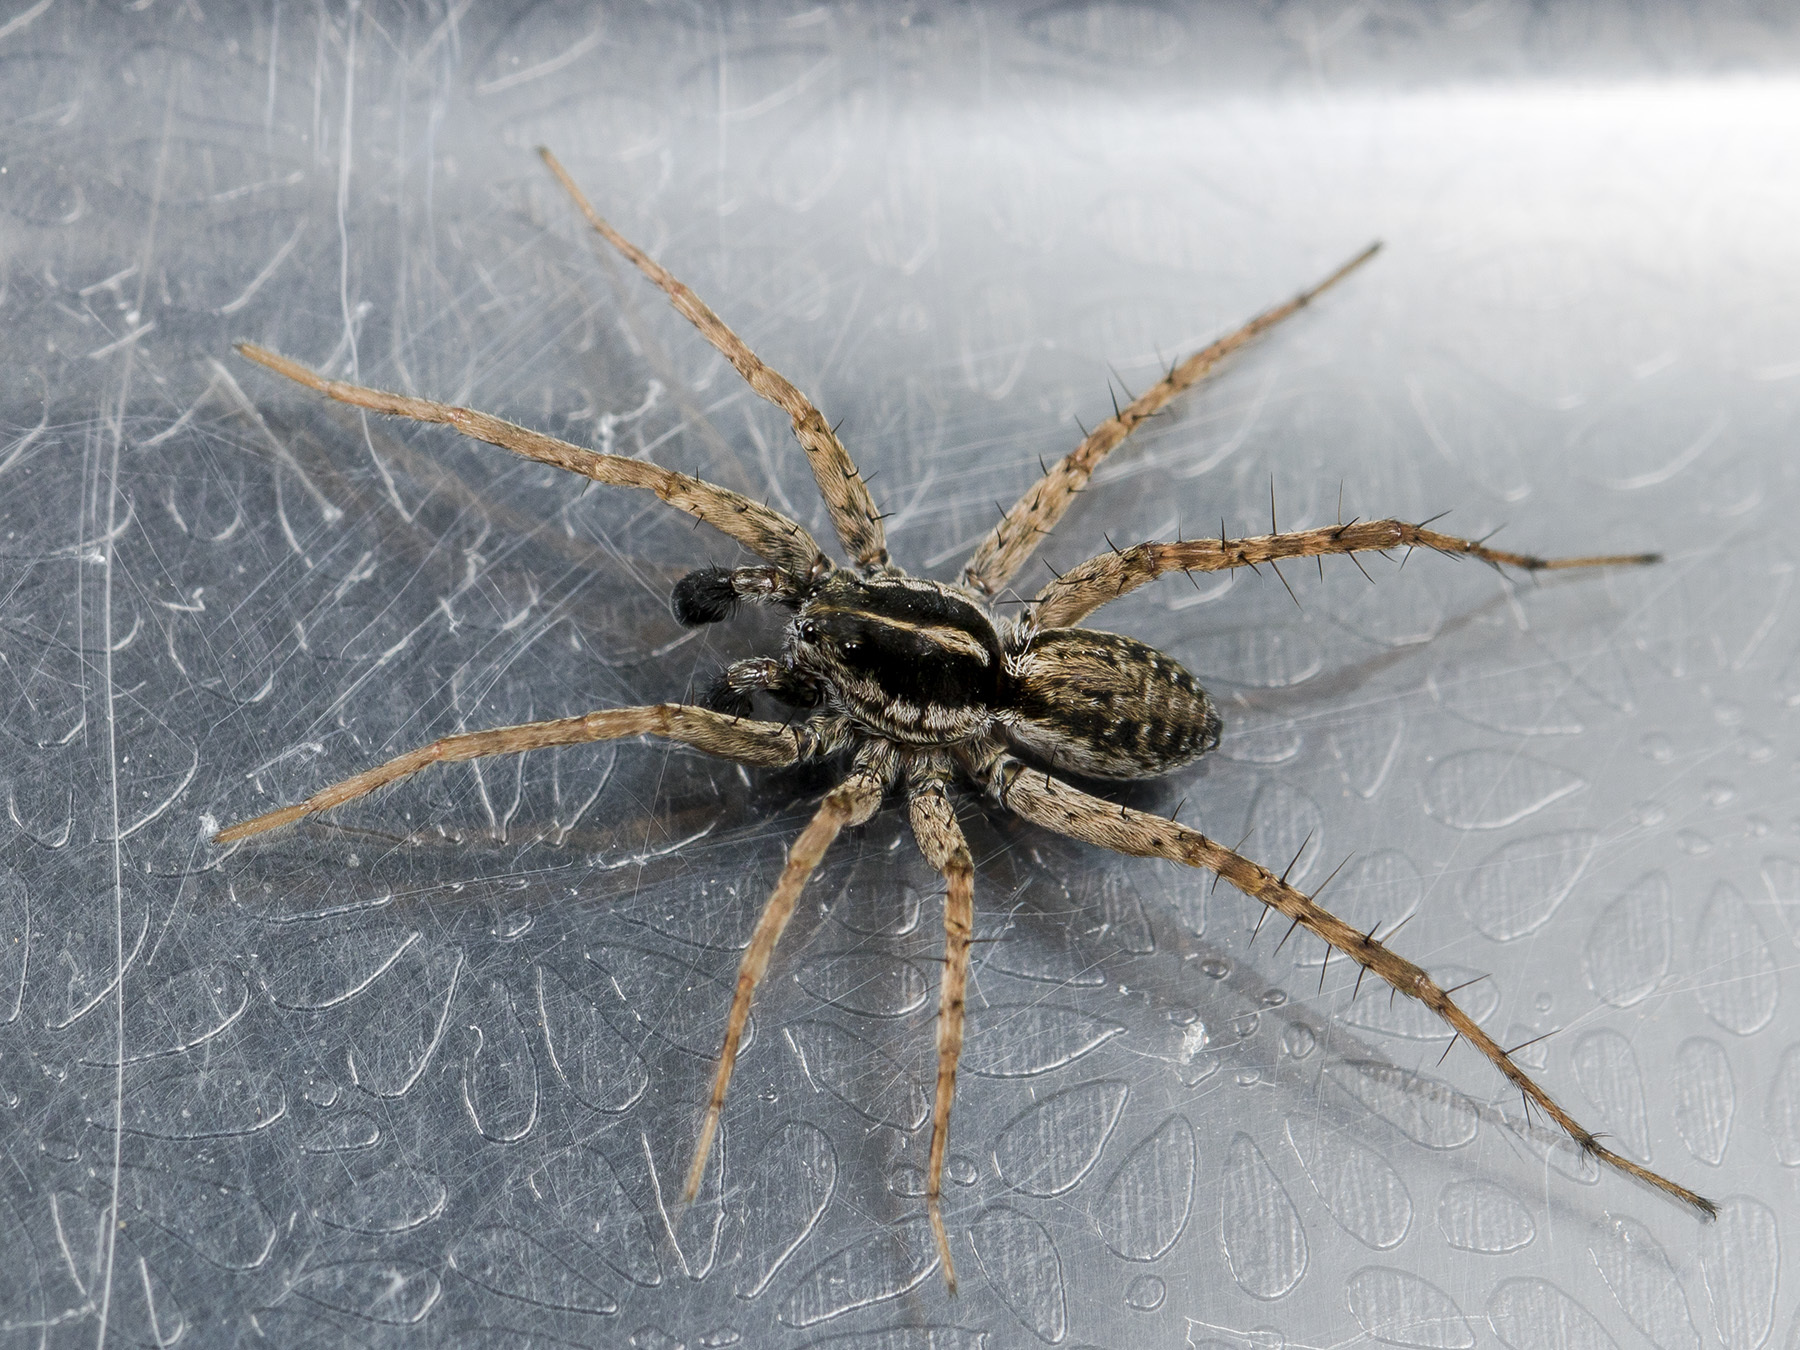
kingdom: Animalia
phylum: Arthropoda
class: Arachnida
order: Araneae
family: Lycosidae
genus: Pardosa
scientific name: Pardosa zonsteini
